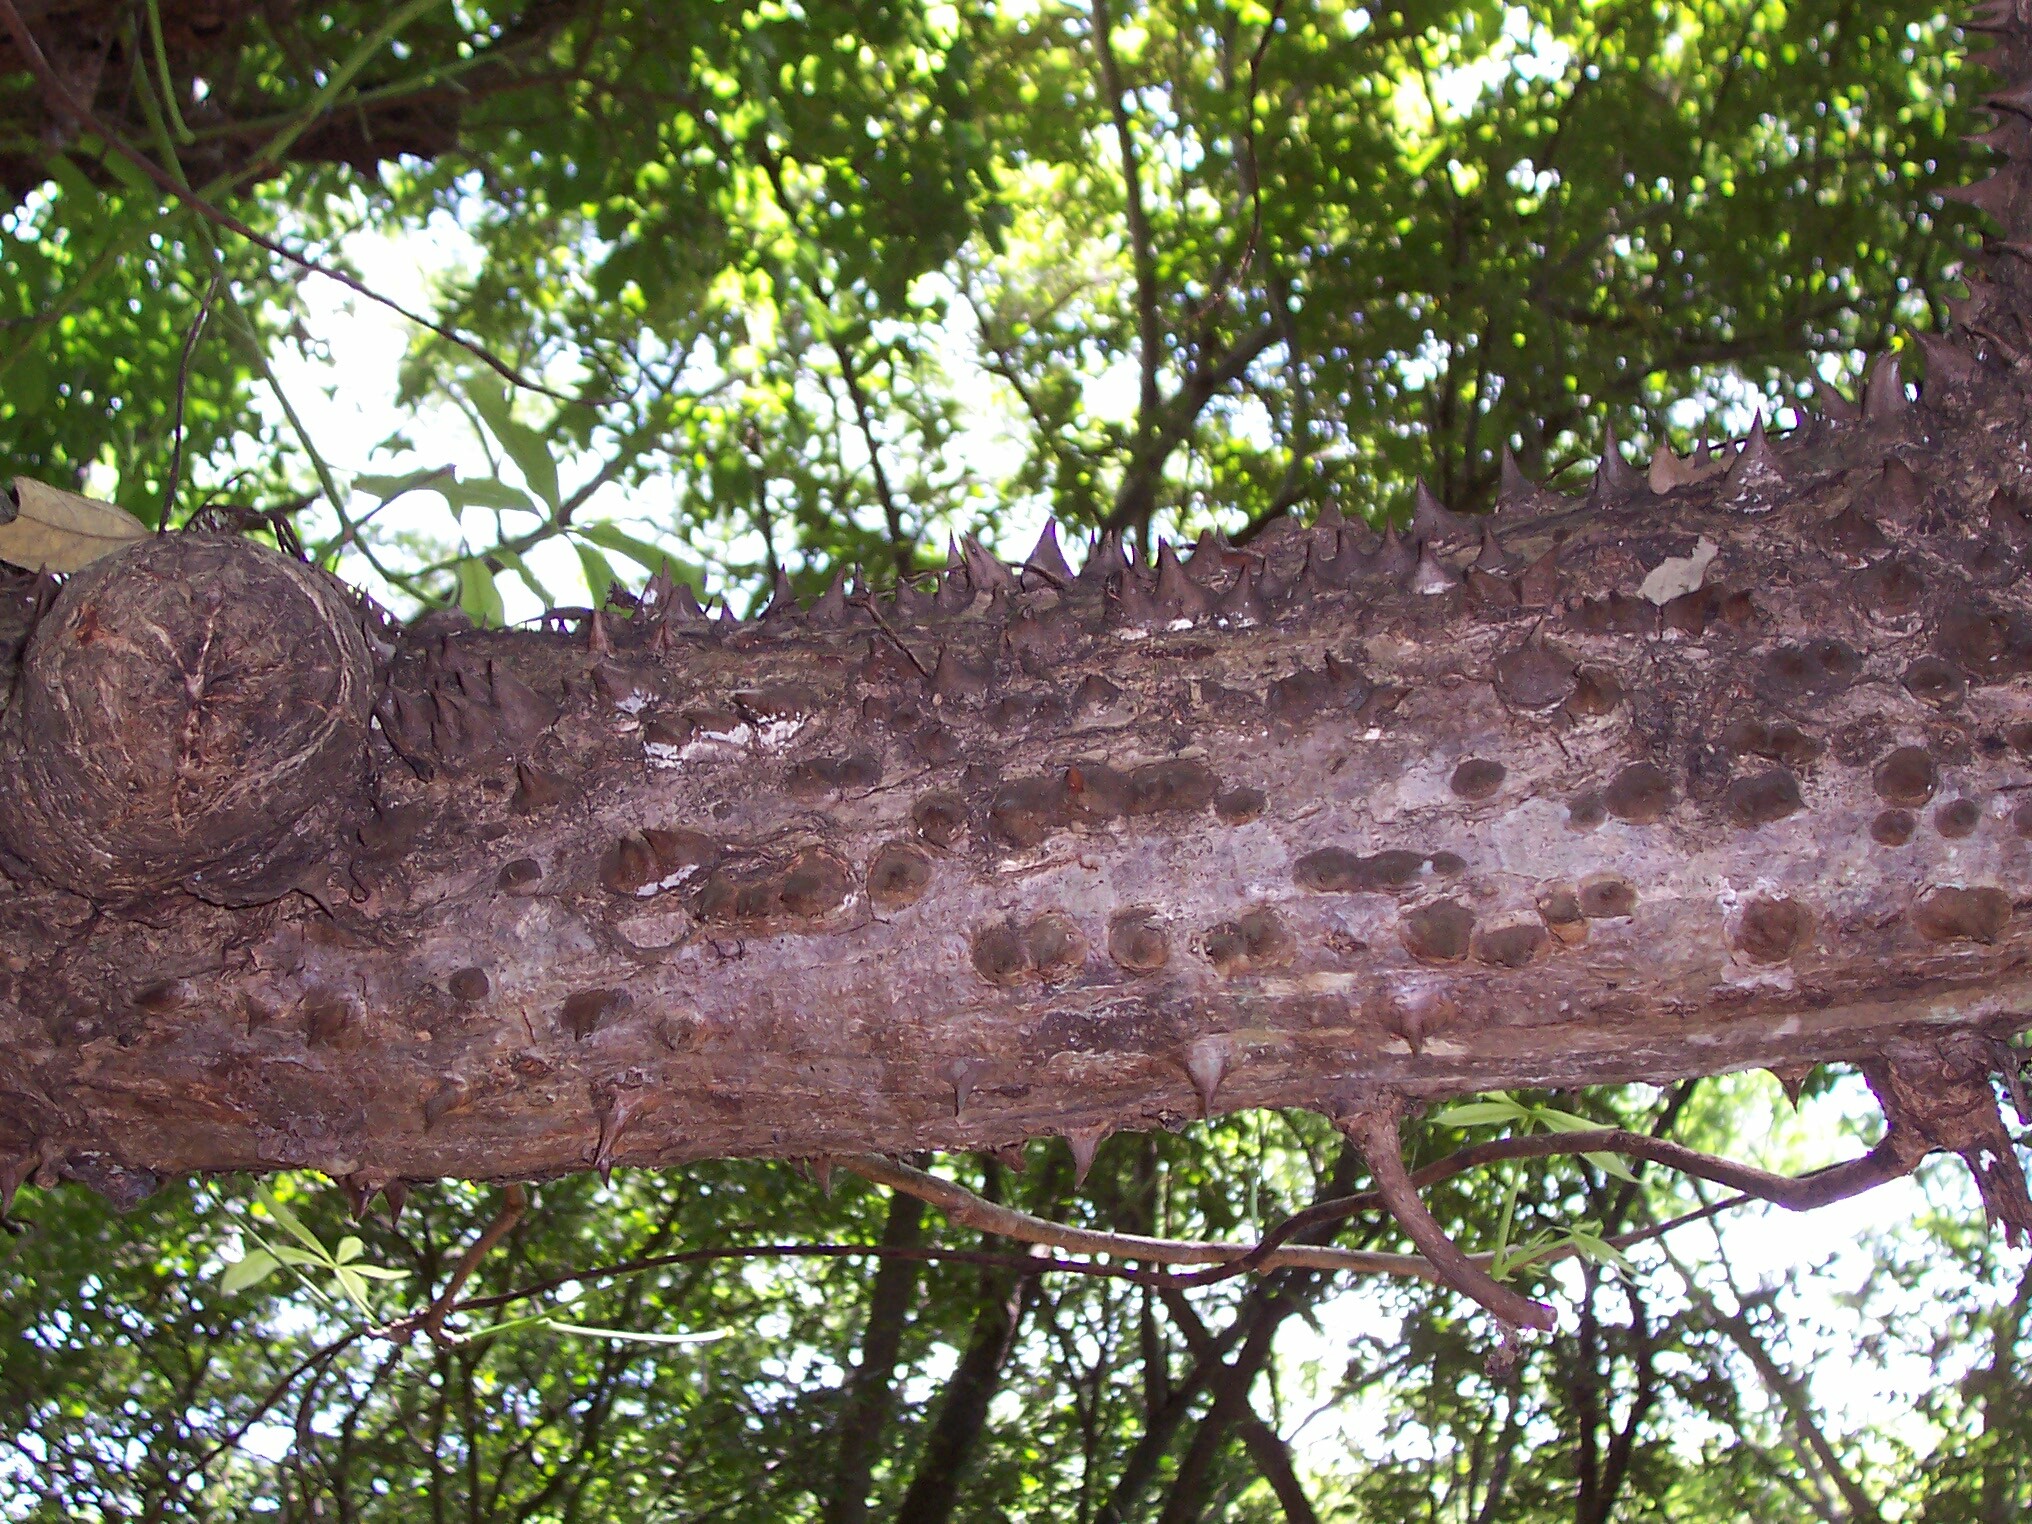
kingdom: Plantae
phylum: Tracheophyta
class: Magnoliopsida
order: Malvales
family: Malvaceae
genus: Pochota
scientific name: Pochota fendleri
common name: Chestnut
